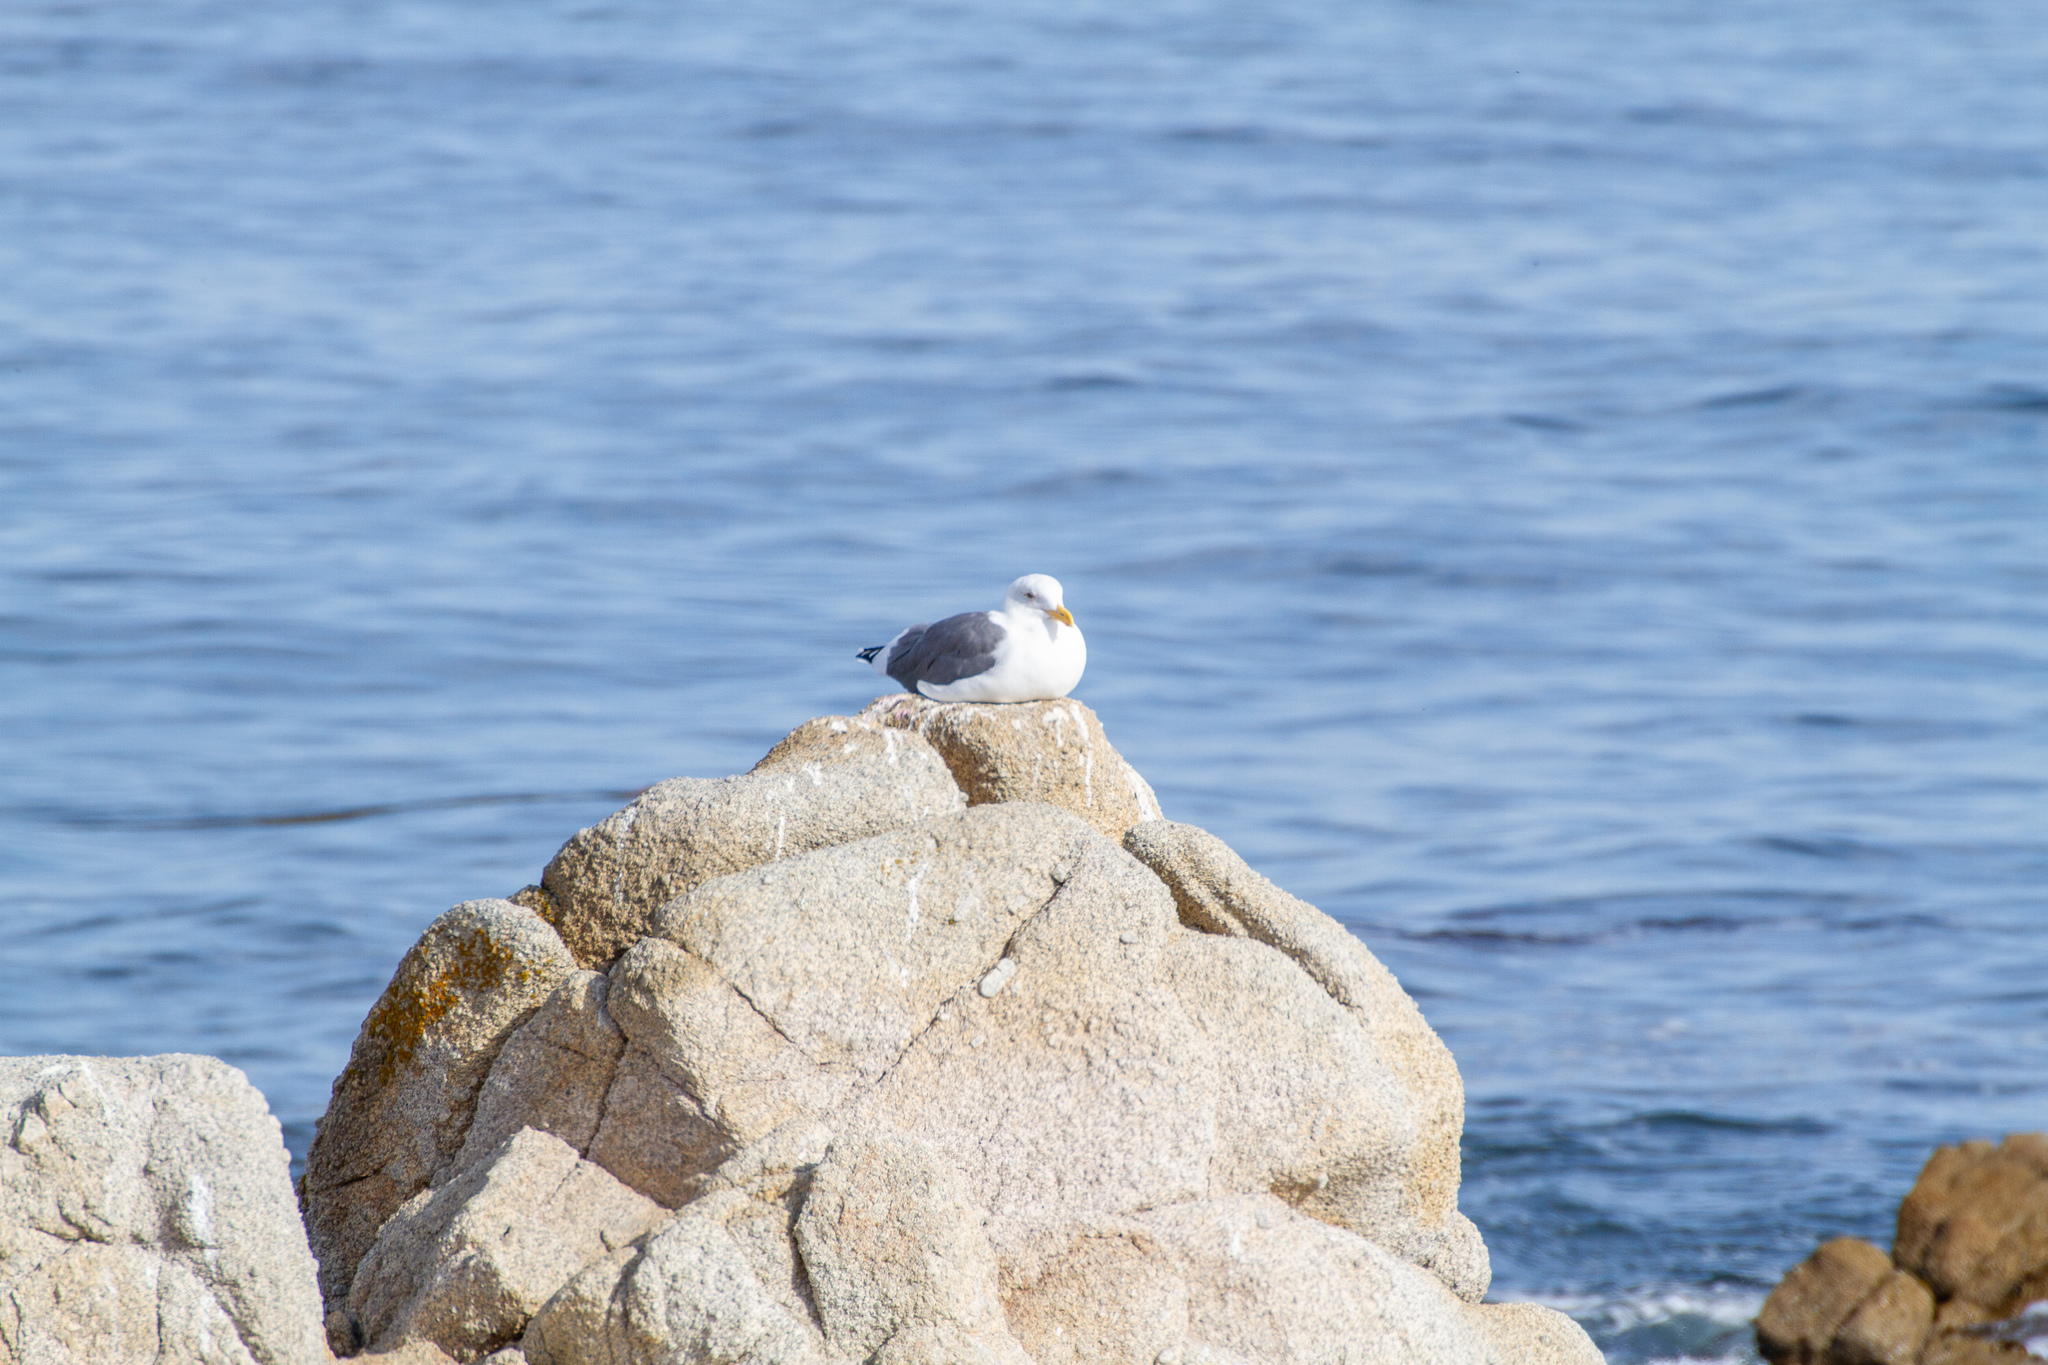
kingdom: Animalia
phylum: Chordata
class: Aves
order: Charadriiformes
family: Laridae
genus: Larus
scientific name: Larus occidentalis
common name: Western gull
